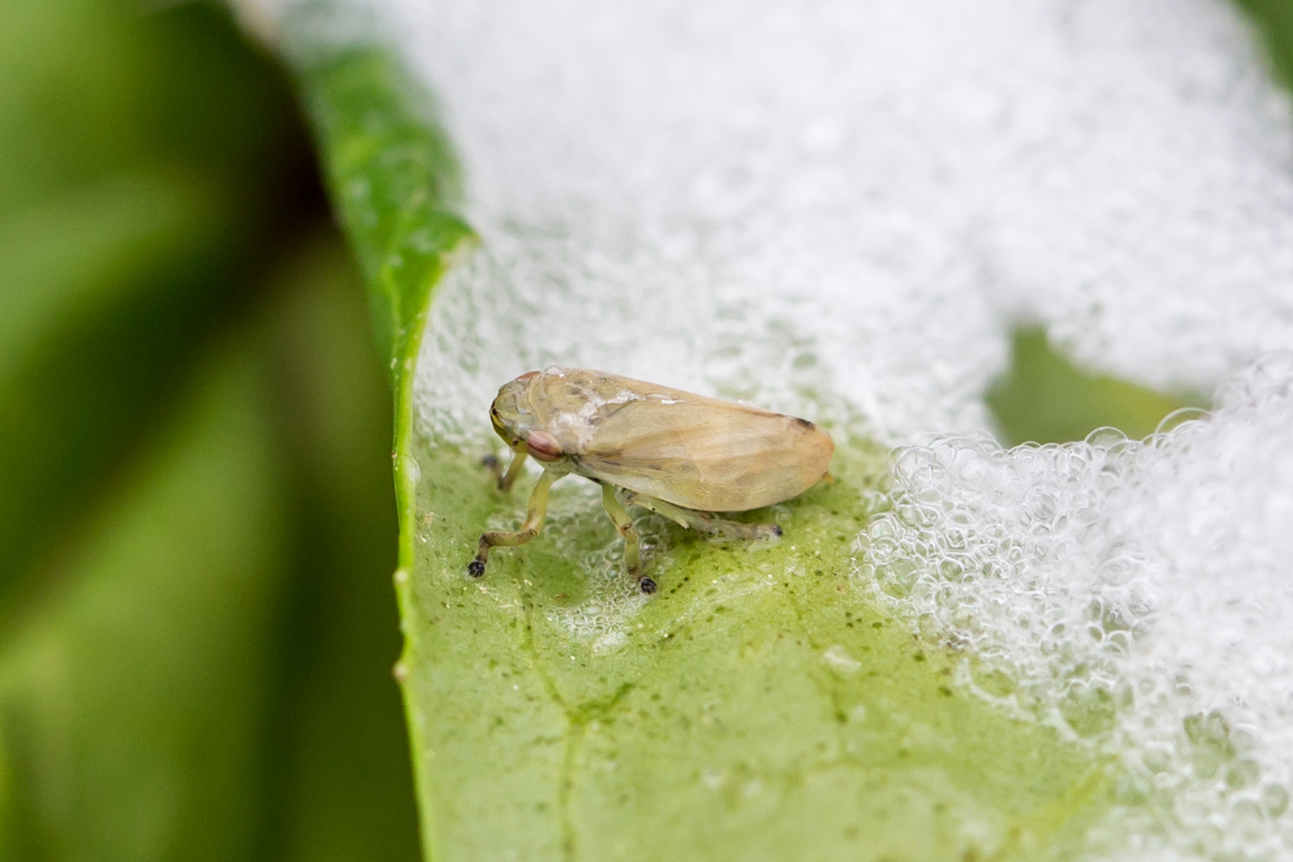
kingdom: Animalia
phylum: Arthropoda
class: Insecta
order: Hemiptera
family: Aphrophoridae
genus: Philaenus
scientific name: Philaenus spumarius
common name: Meadow spittlebug
